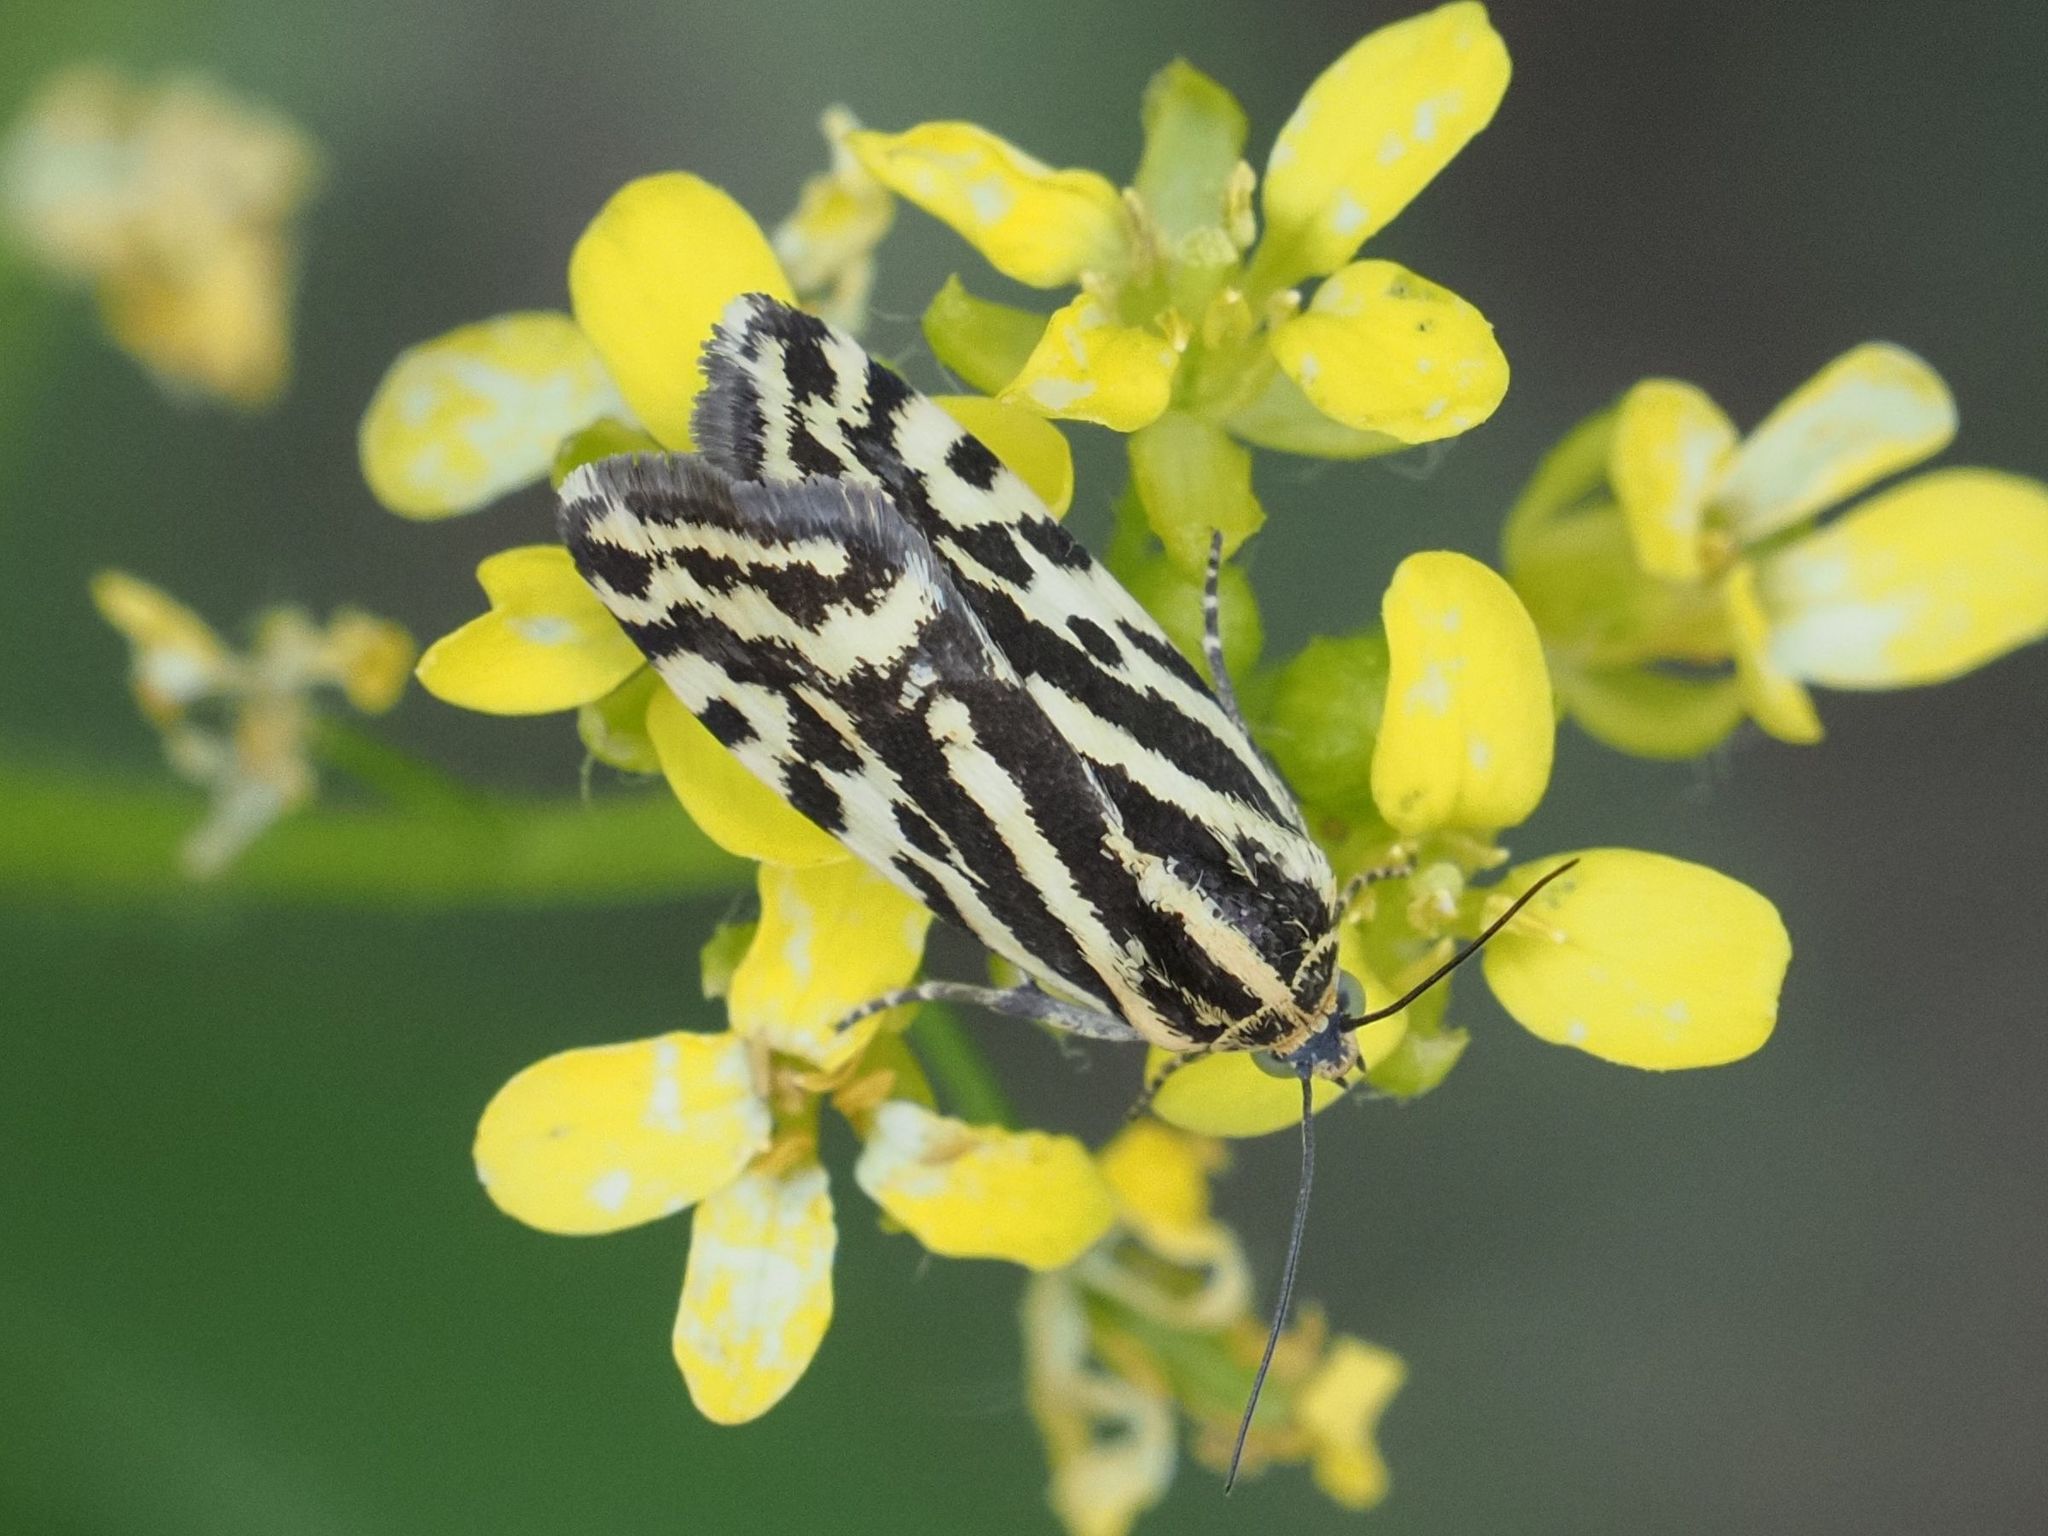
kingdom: Animalia
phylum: Arthropoda
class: Insecta
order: Lepidoptera
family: Noctuidae
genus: Acontia
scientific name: Acontia trabealis
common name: Spotted sulphur
